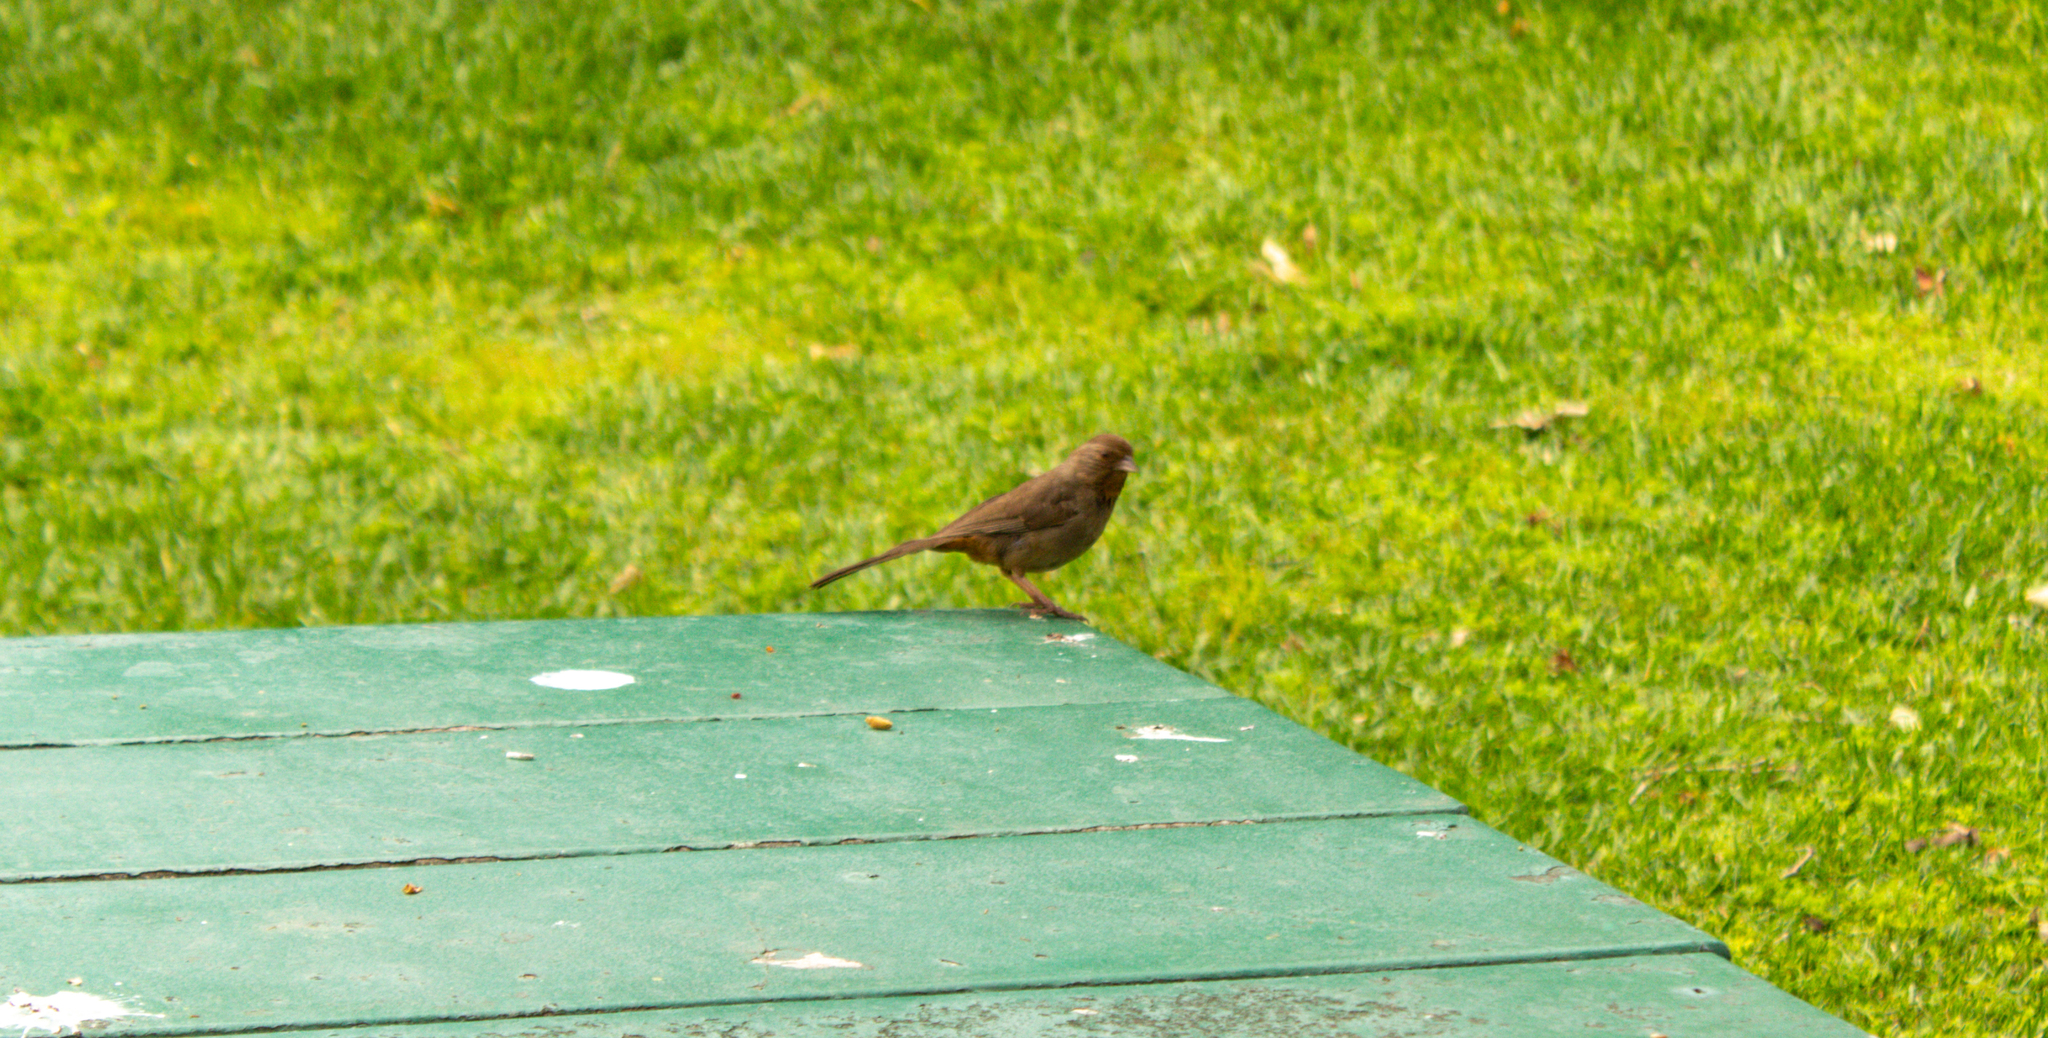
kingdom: Animalia
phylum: Chordata
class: Aves
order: Passeriformes
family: Passerellidae
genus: Melozone
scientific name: Melozone crissalis
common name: California towhee
